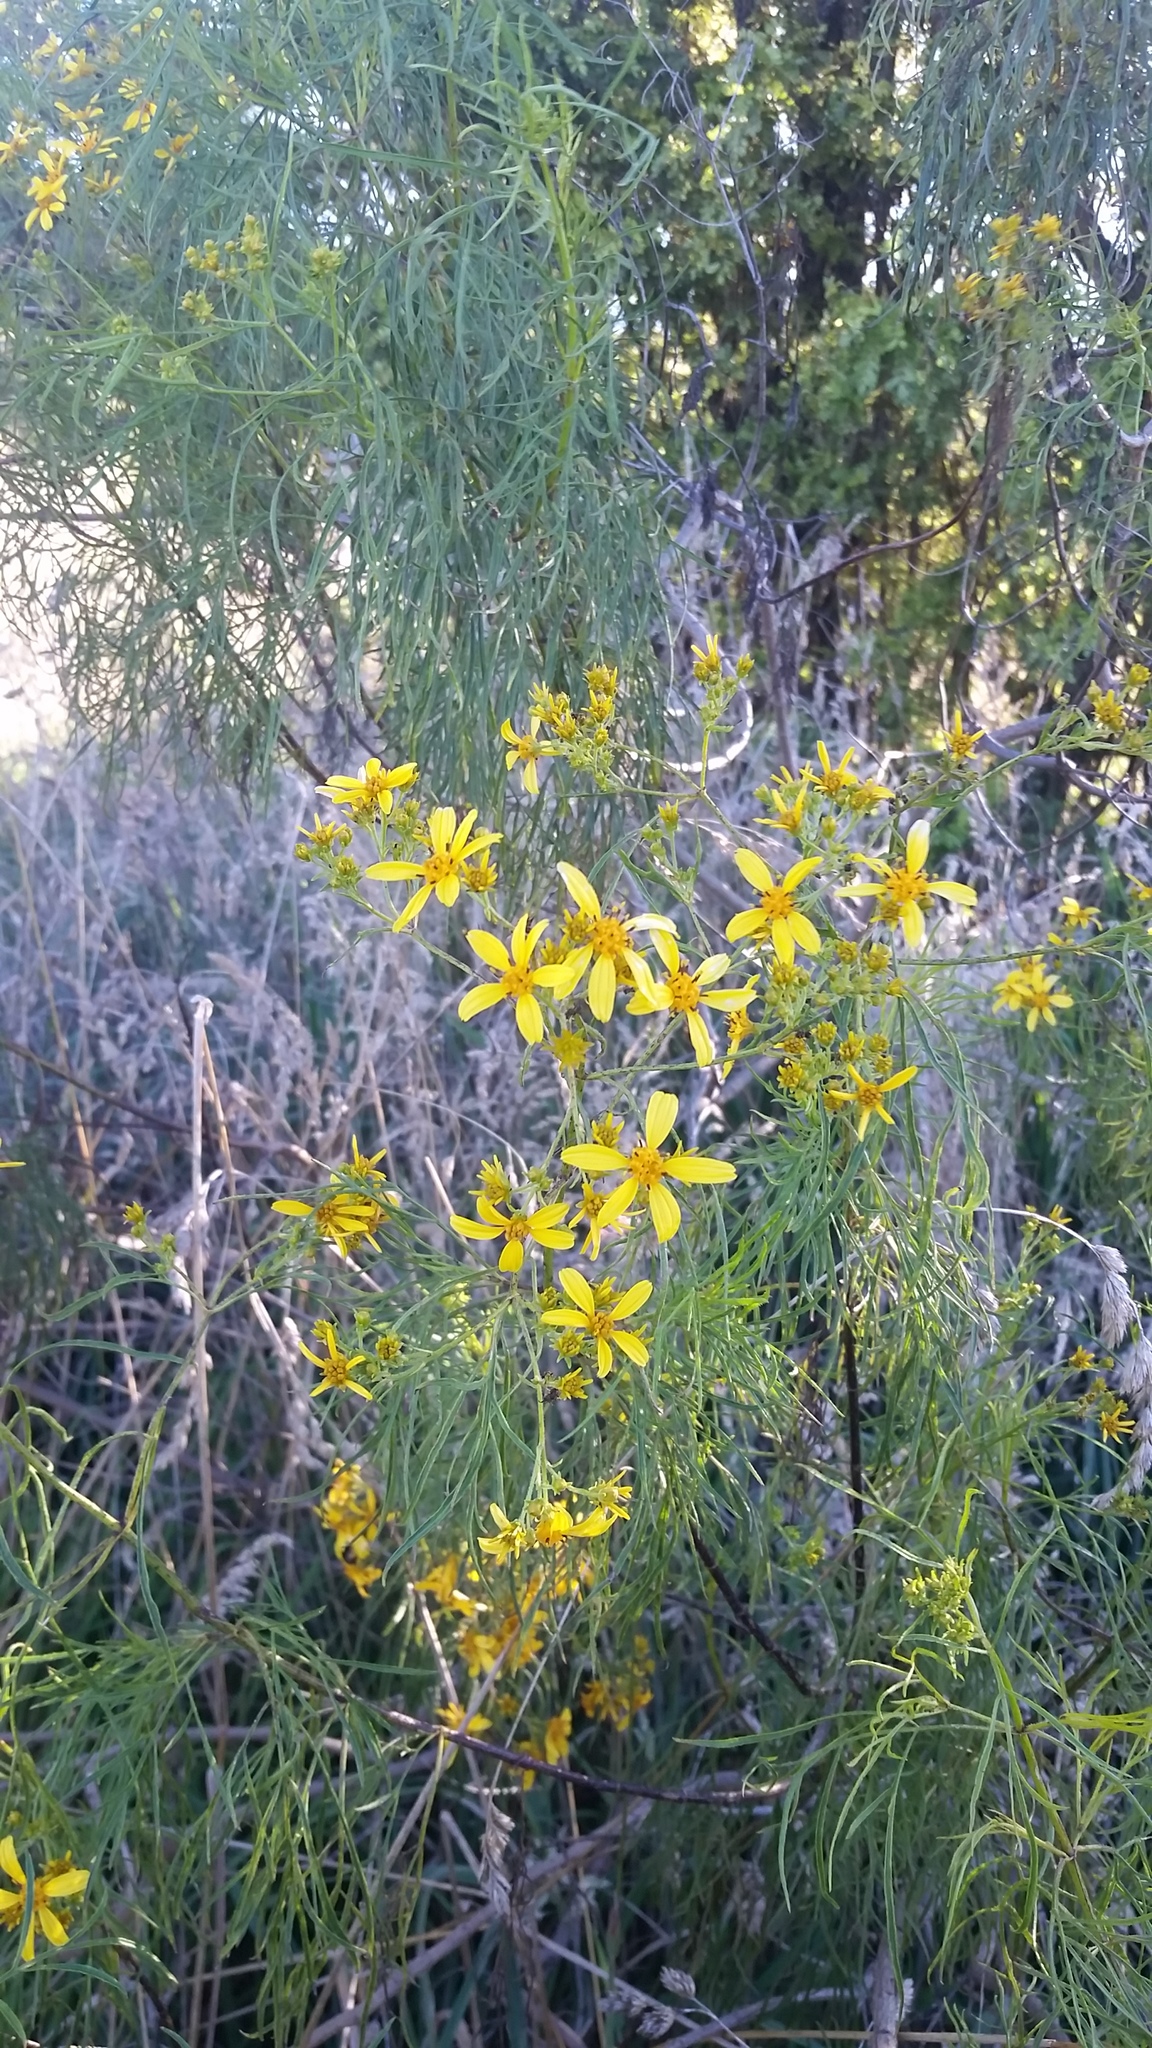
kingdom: Plantae
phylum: Tracheophyta
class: Magnoliopsida
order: Asterales
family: Asteraceae
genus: Bidens
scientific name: Bidens menziesii
